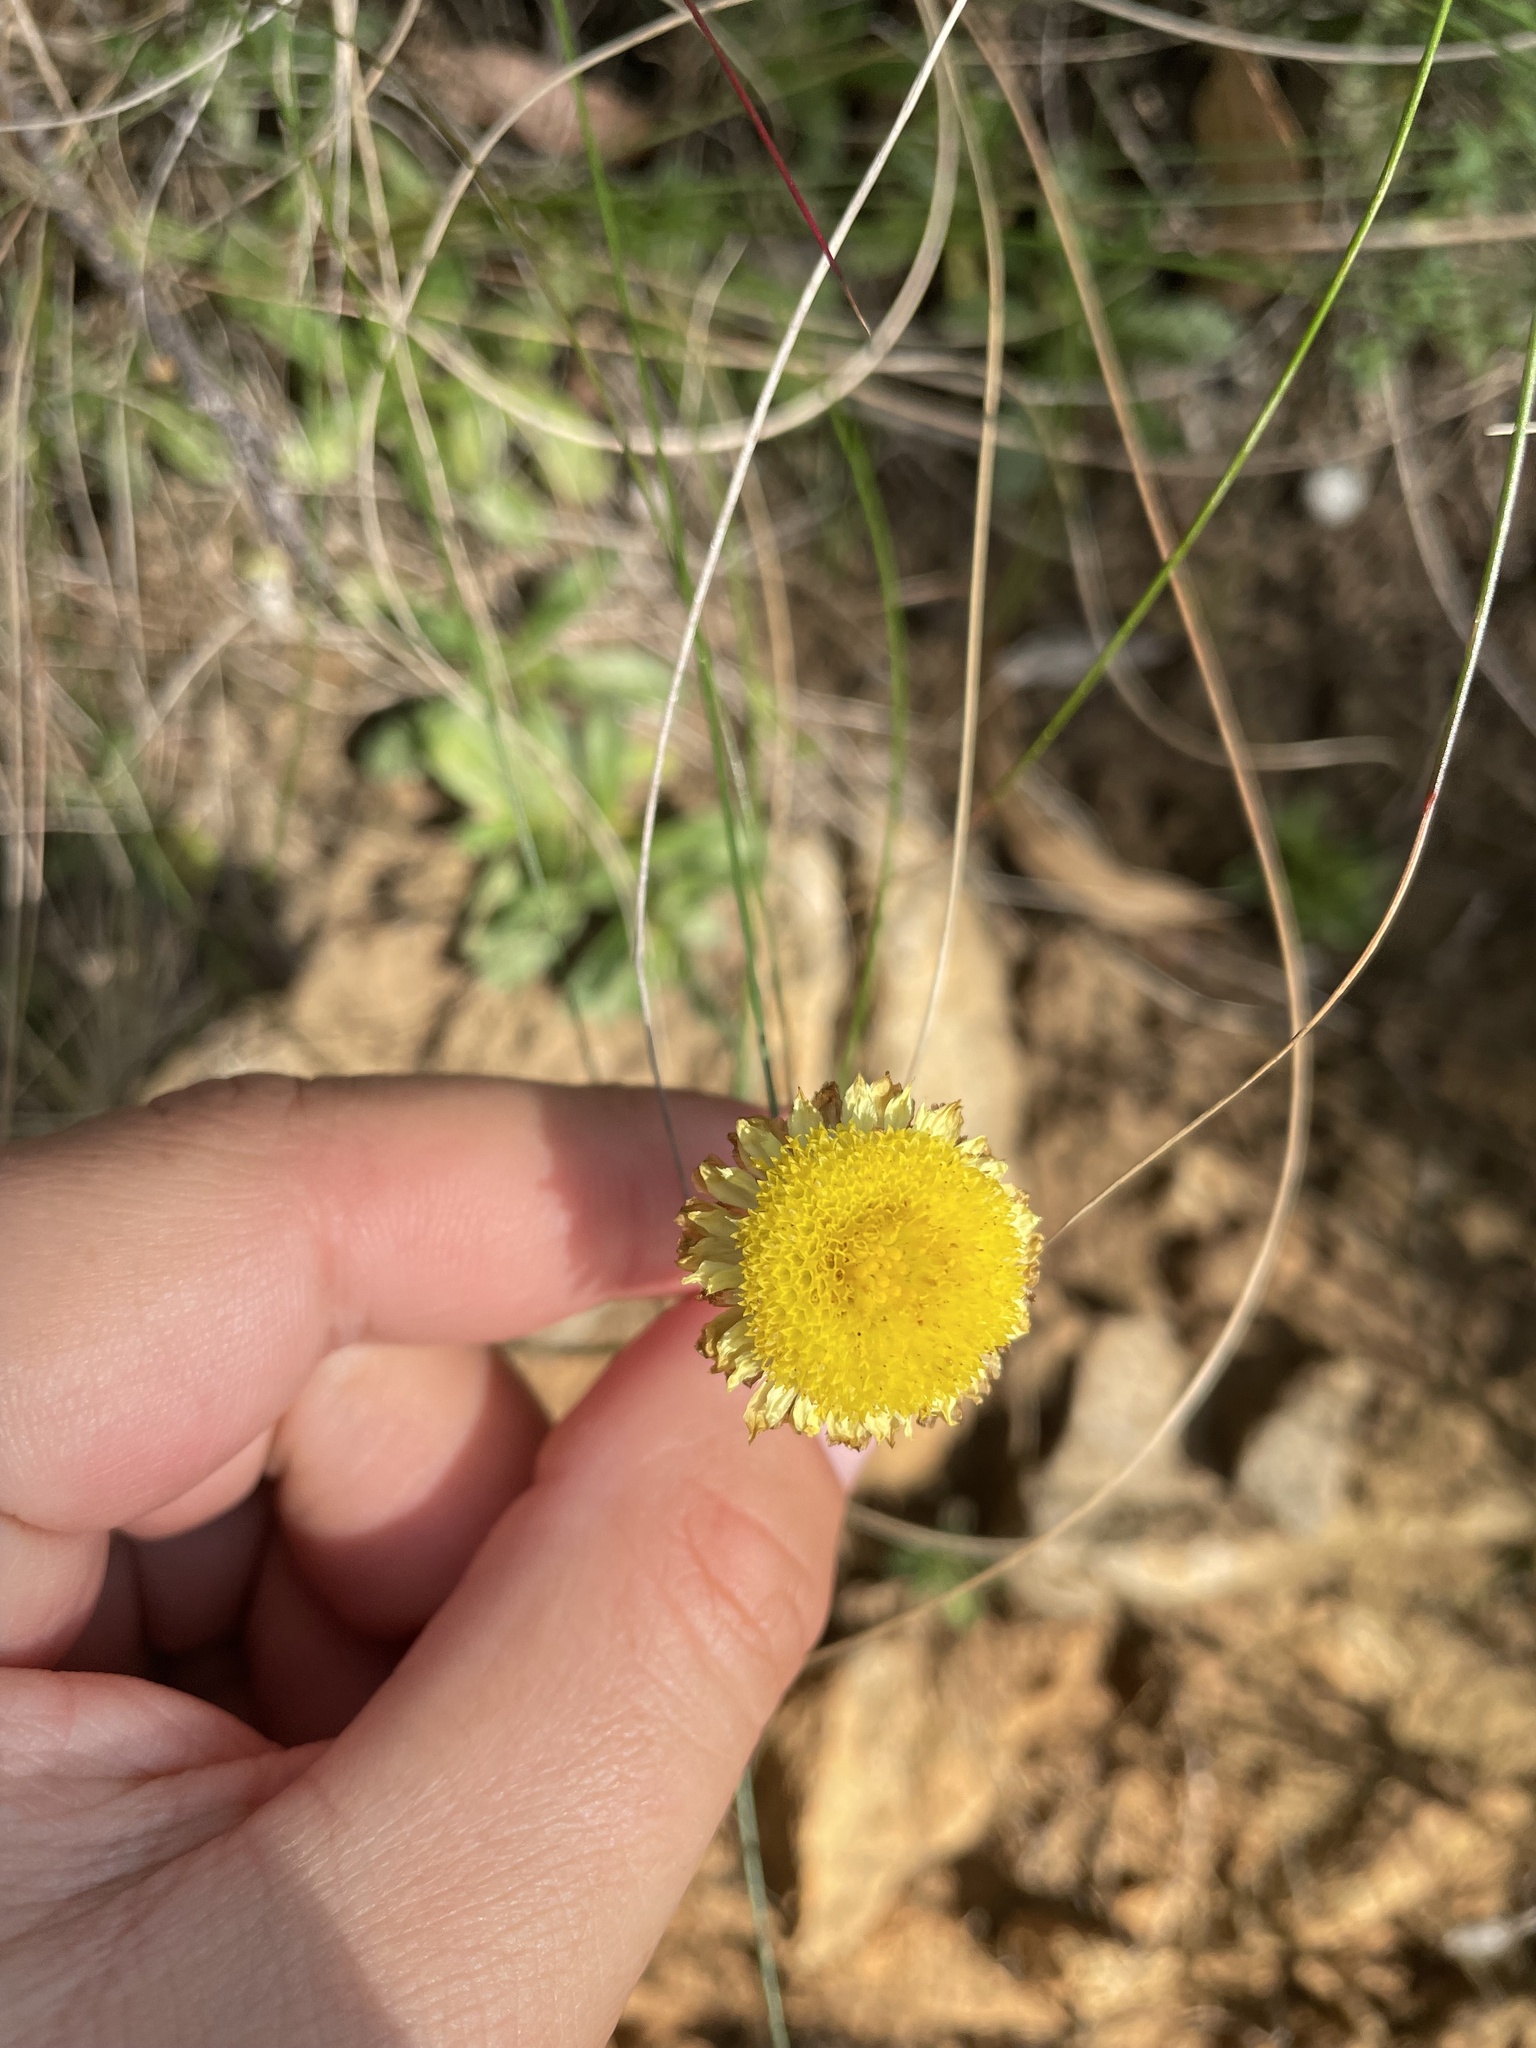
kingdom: Plantae
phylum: Tracheophyta
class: Magnoliopsida
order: Asterales
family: Asteraceae
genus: Coronidium
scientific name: Coronidium scorpioides
